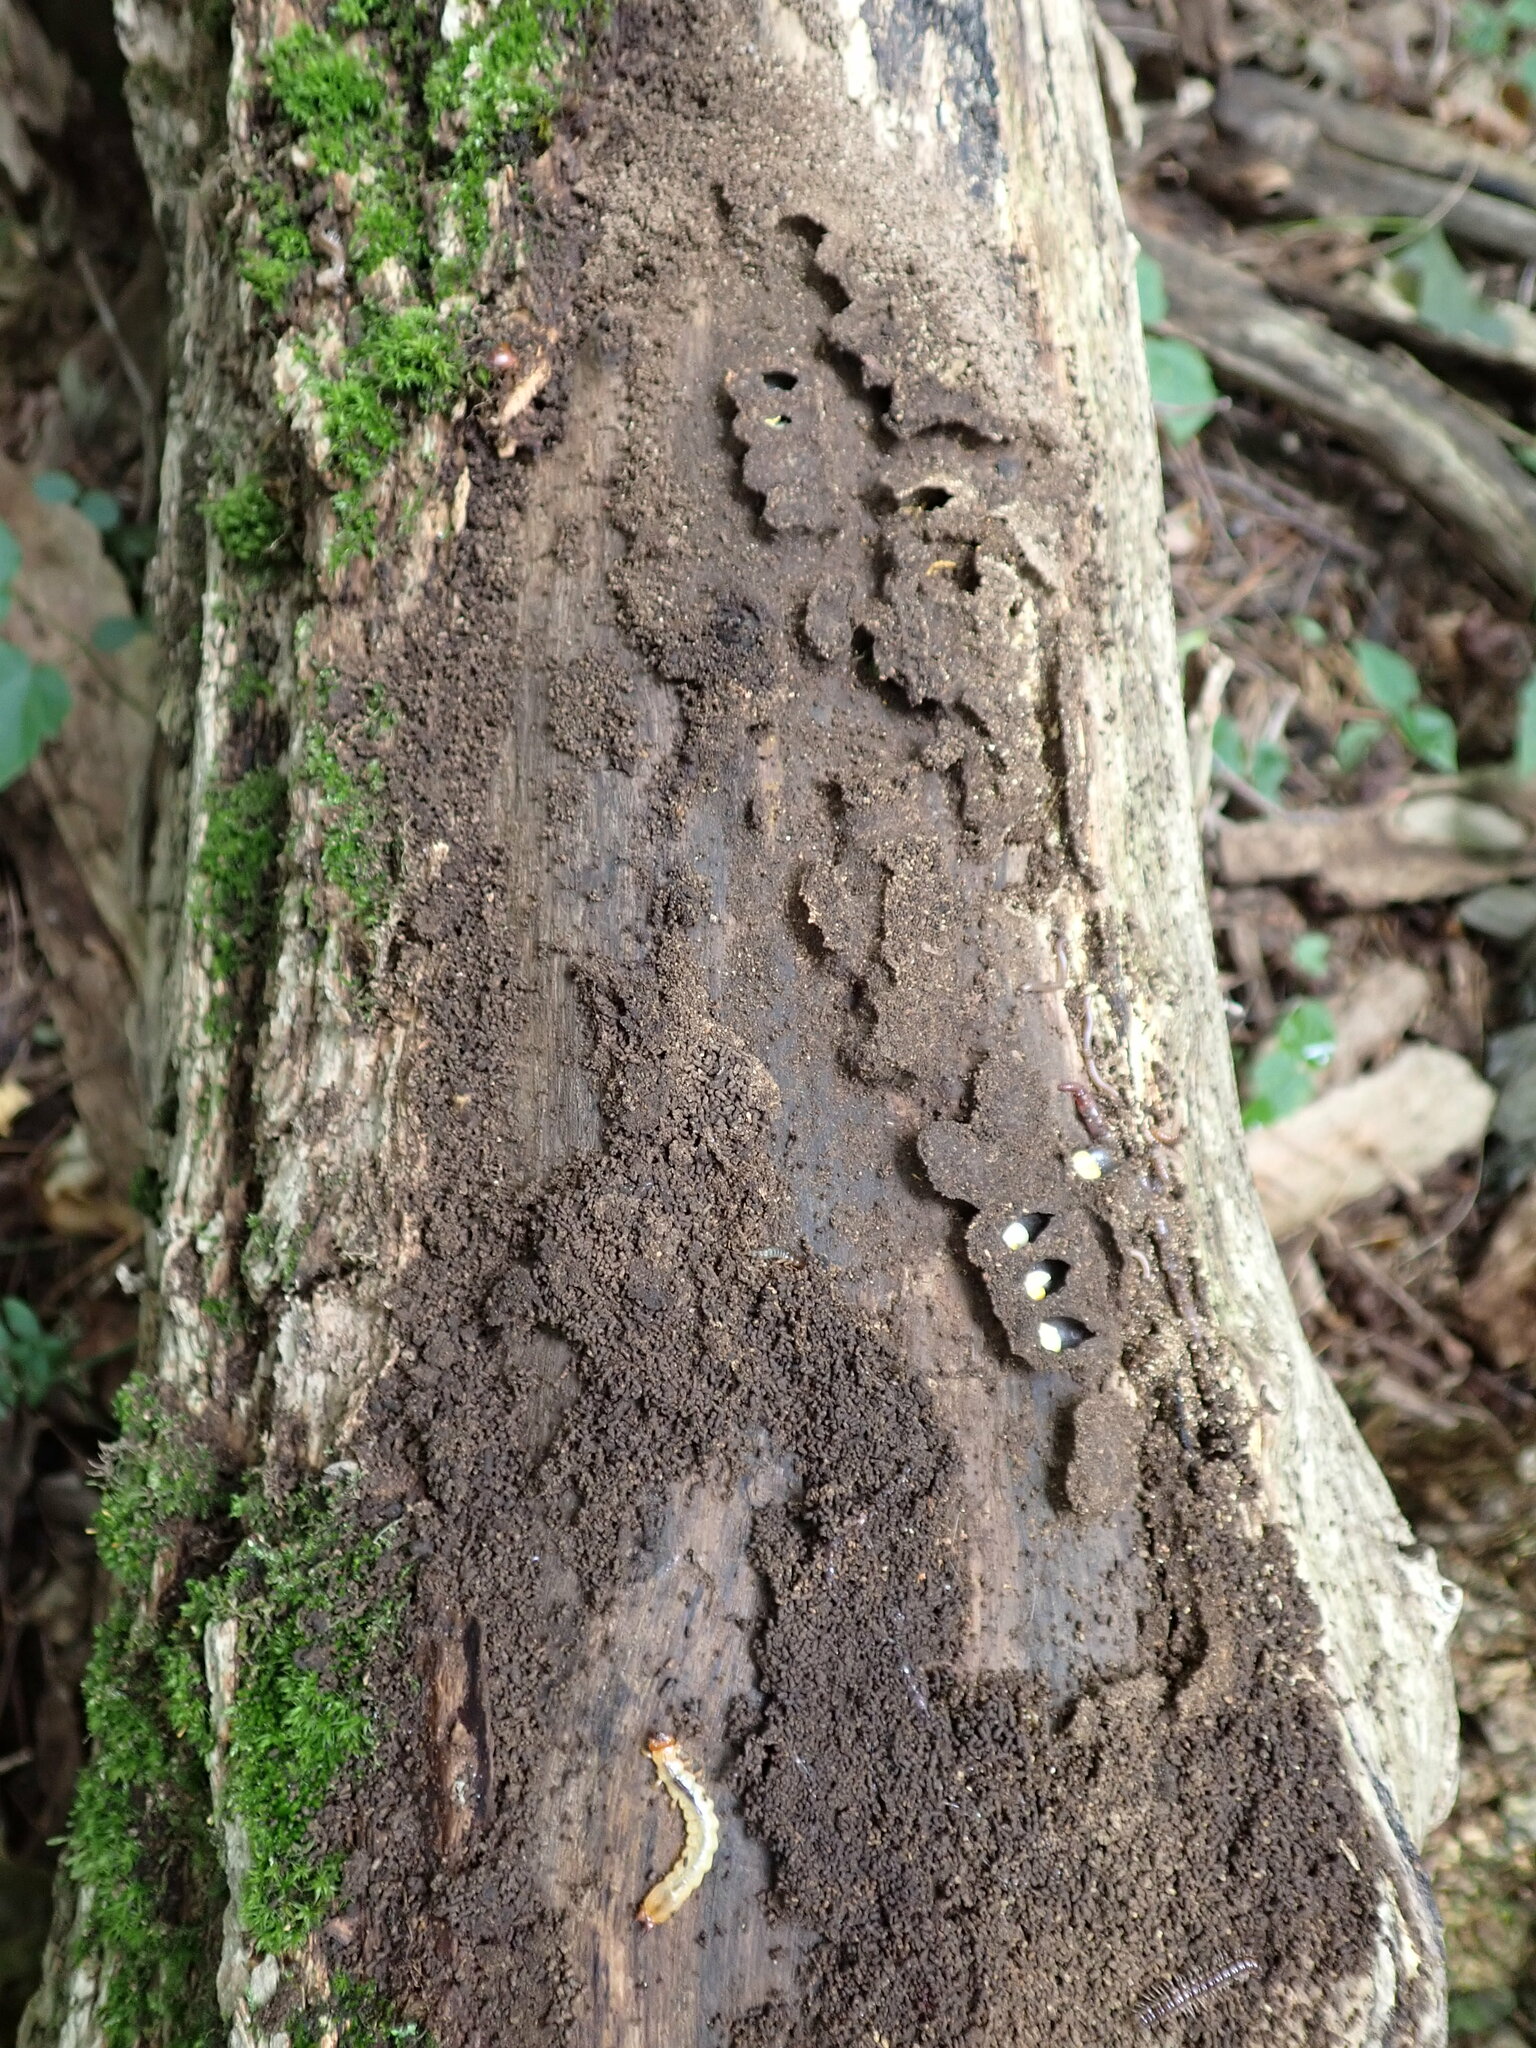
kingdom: Animalia
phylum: Arthropoda
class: Insecta
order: Hymenoptera
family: Halictidae
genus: Augochlora
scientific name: Augochlora pura
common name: Pure green sweat bee
